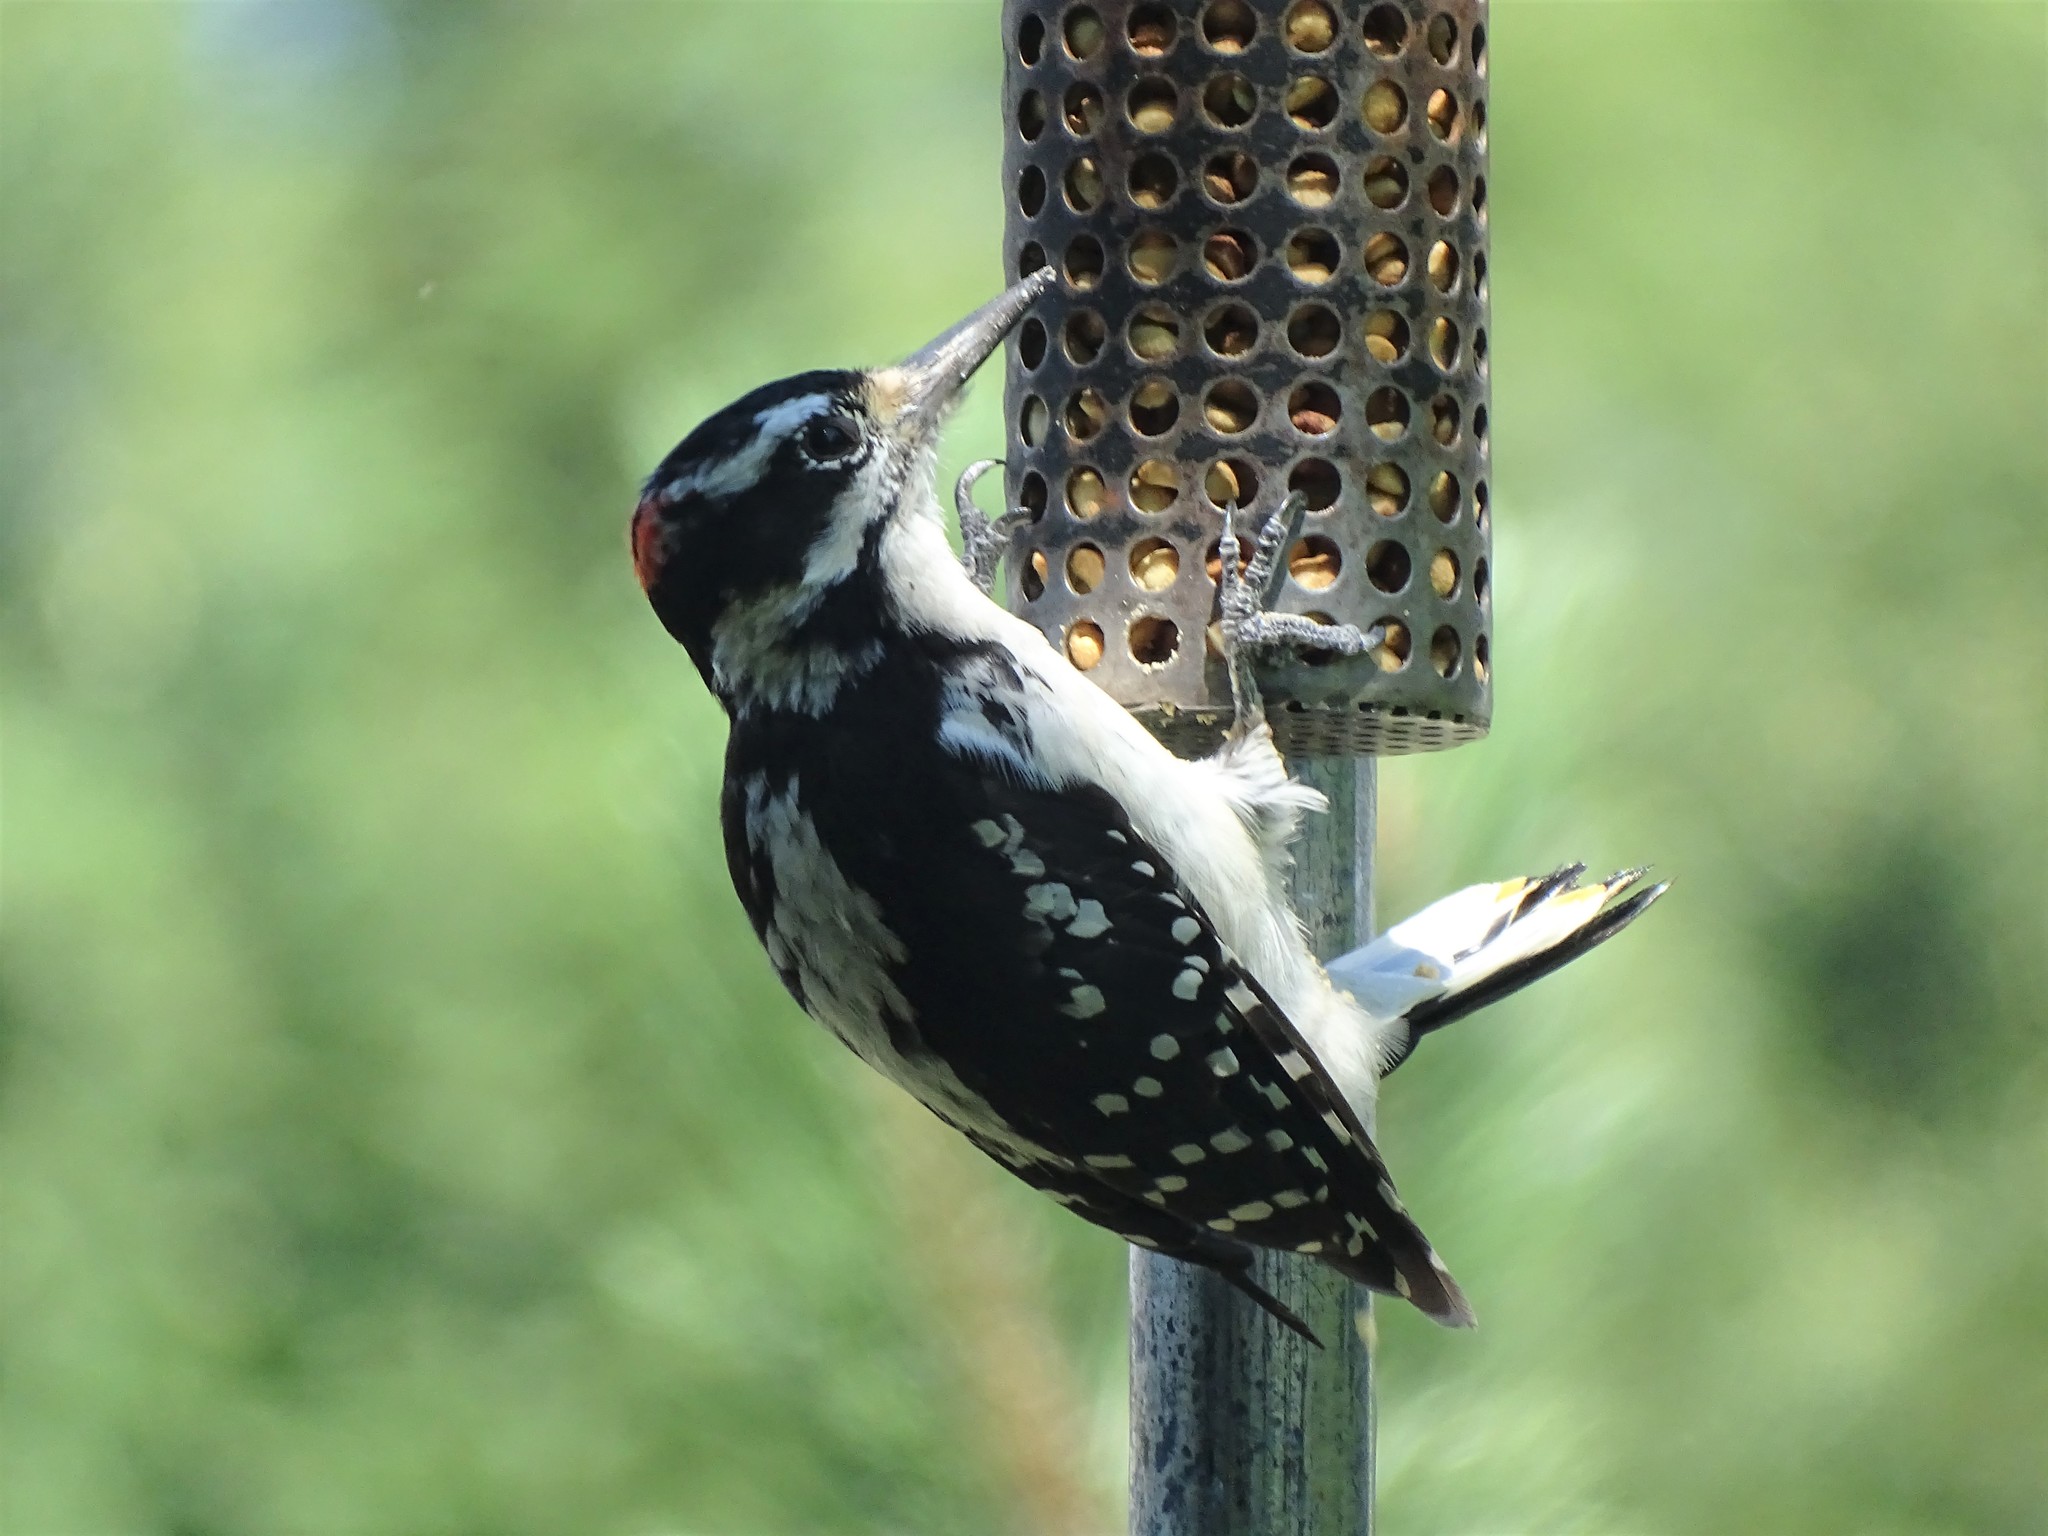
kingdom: Animalia
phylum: Chordata
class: Aves
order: Piciformes
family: Picidae
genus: Leuconotopicus
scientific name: Leuconotopicus villosus
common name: Hairy woodpecker
